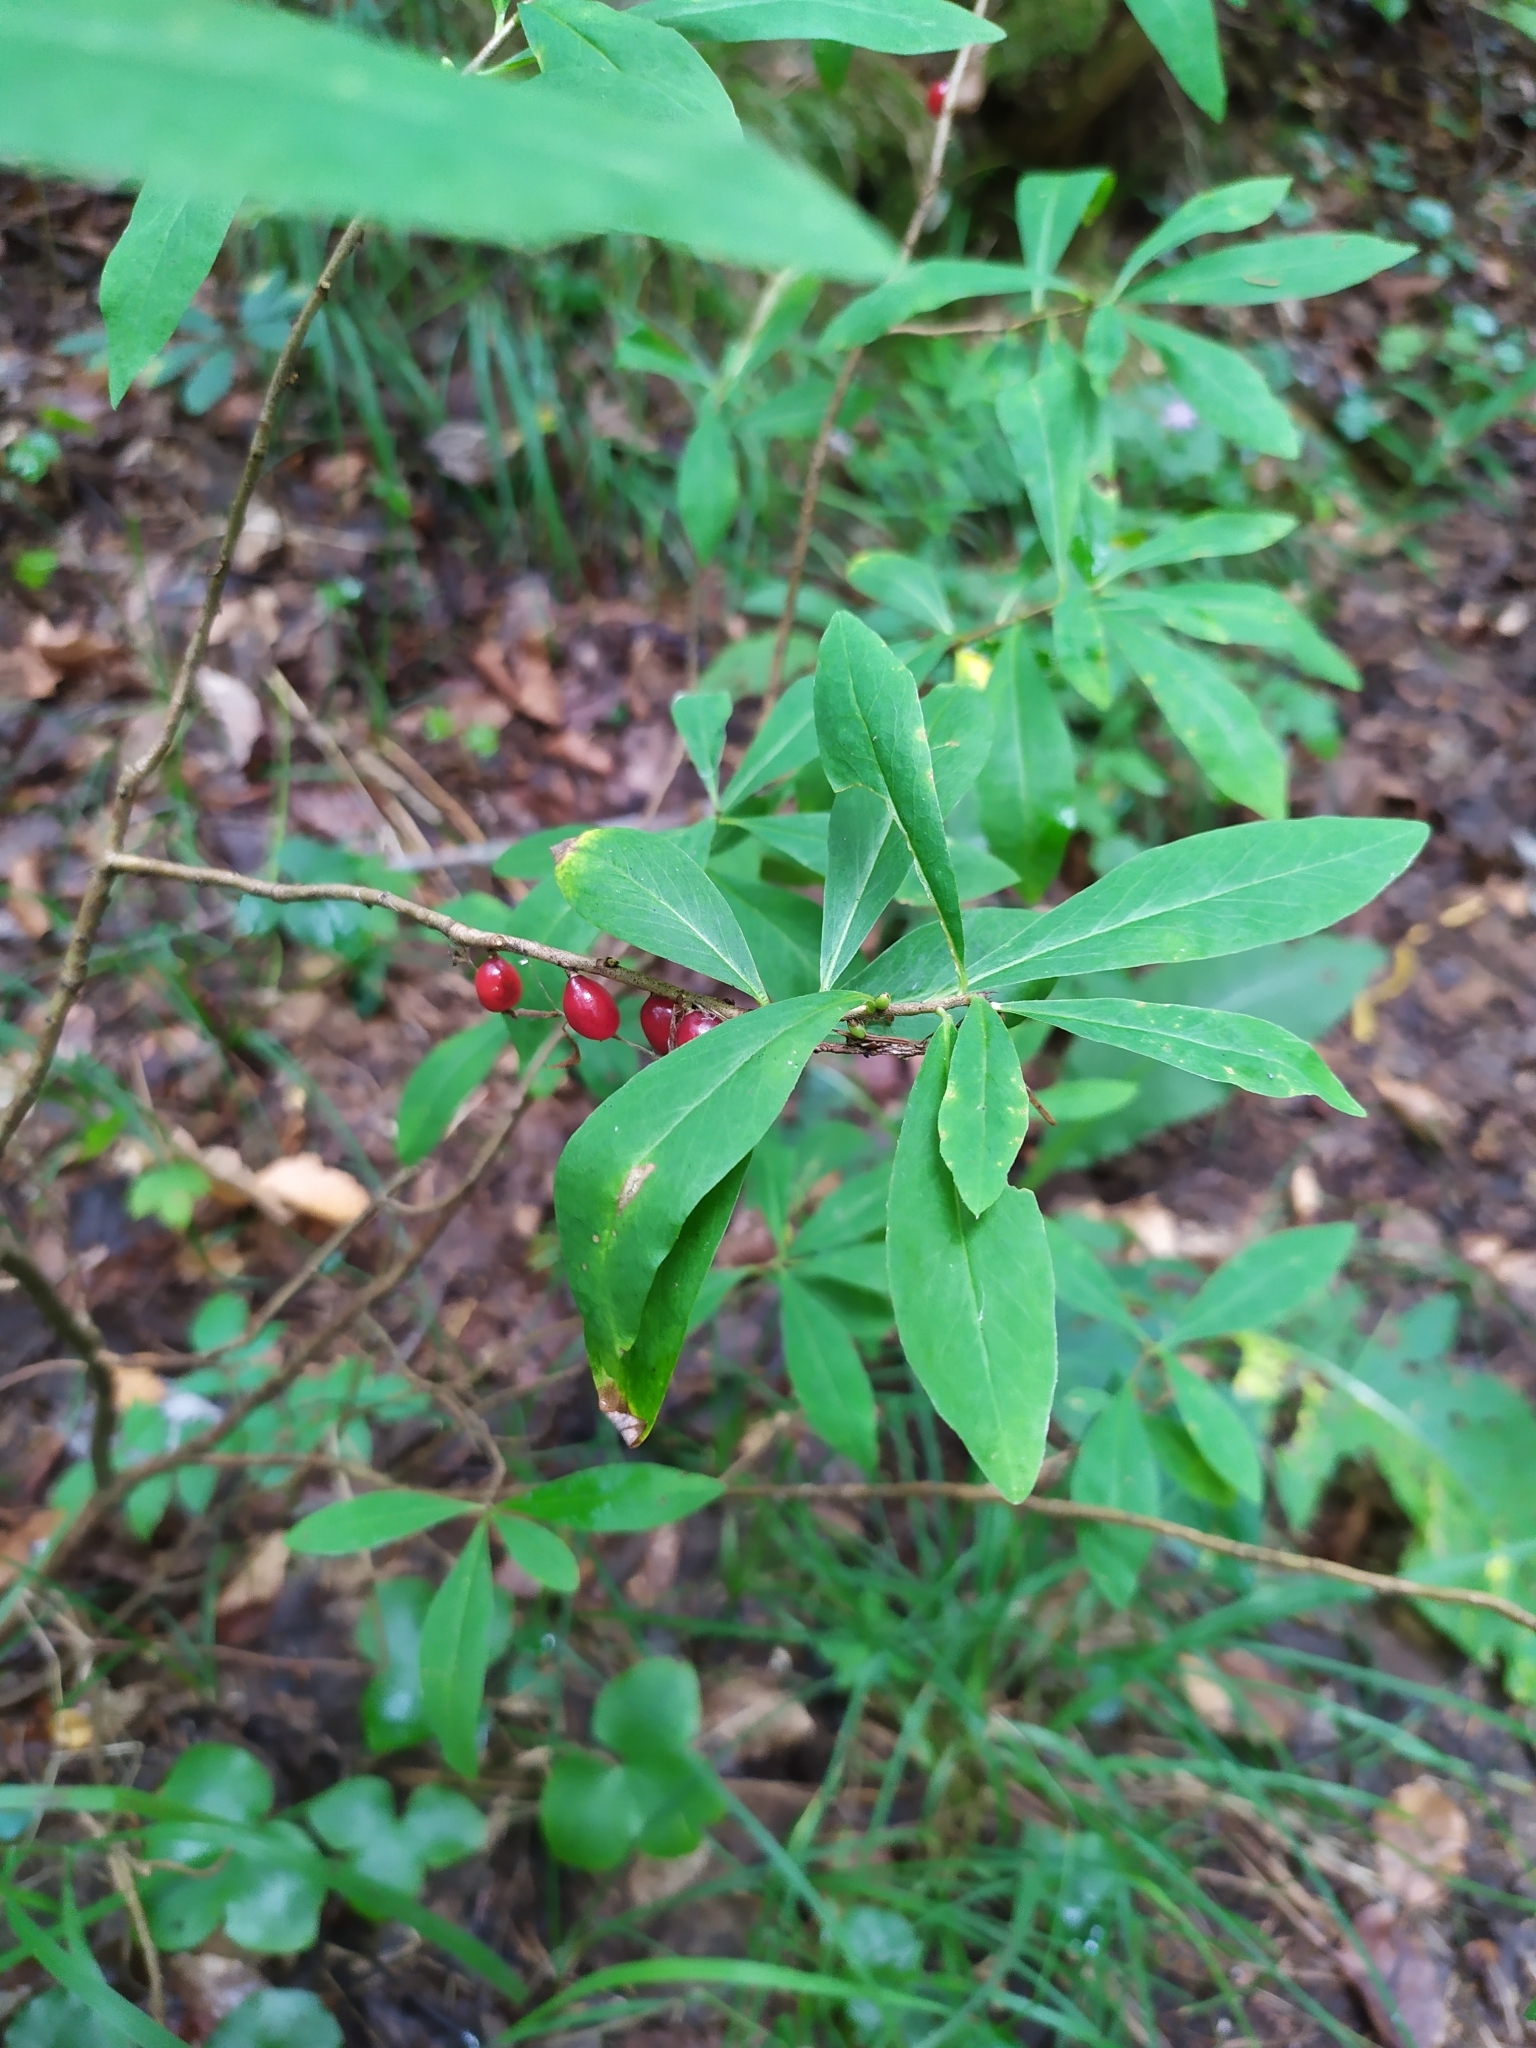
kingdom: Plantae
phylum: Tracheophyta
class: Magnoliopsida
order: Malvales
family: Thymelaeaceae
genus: Daphne
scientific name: Daphne mezereum
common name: Mezereon
